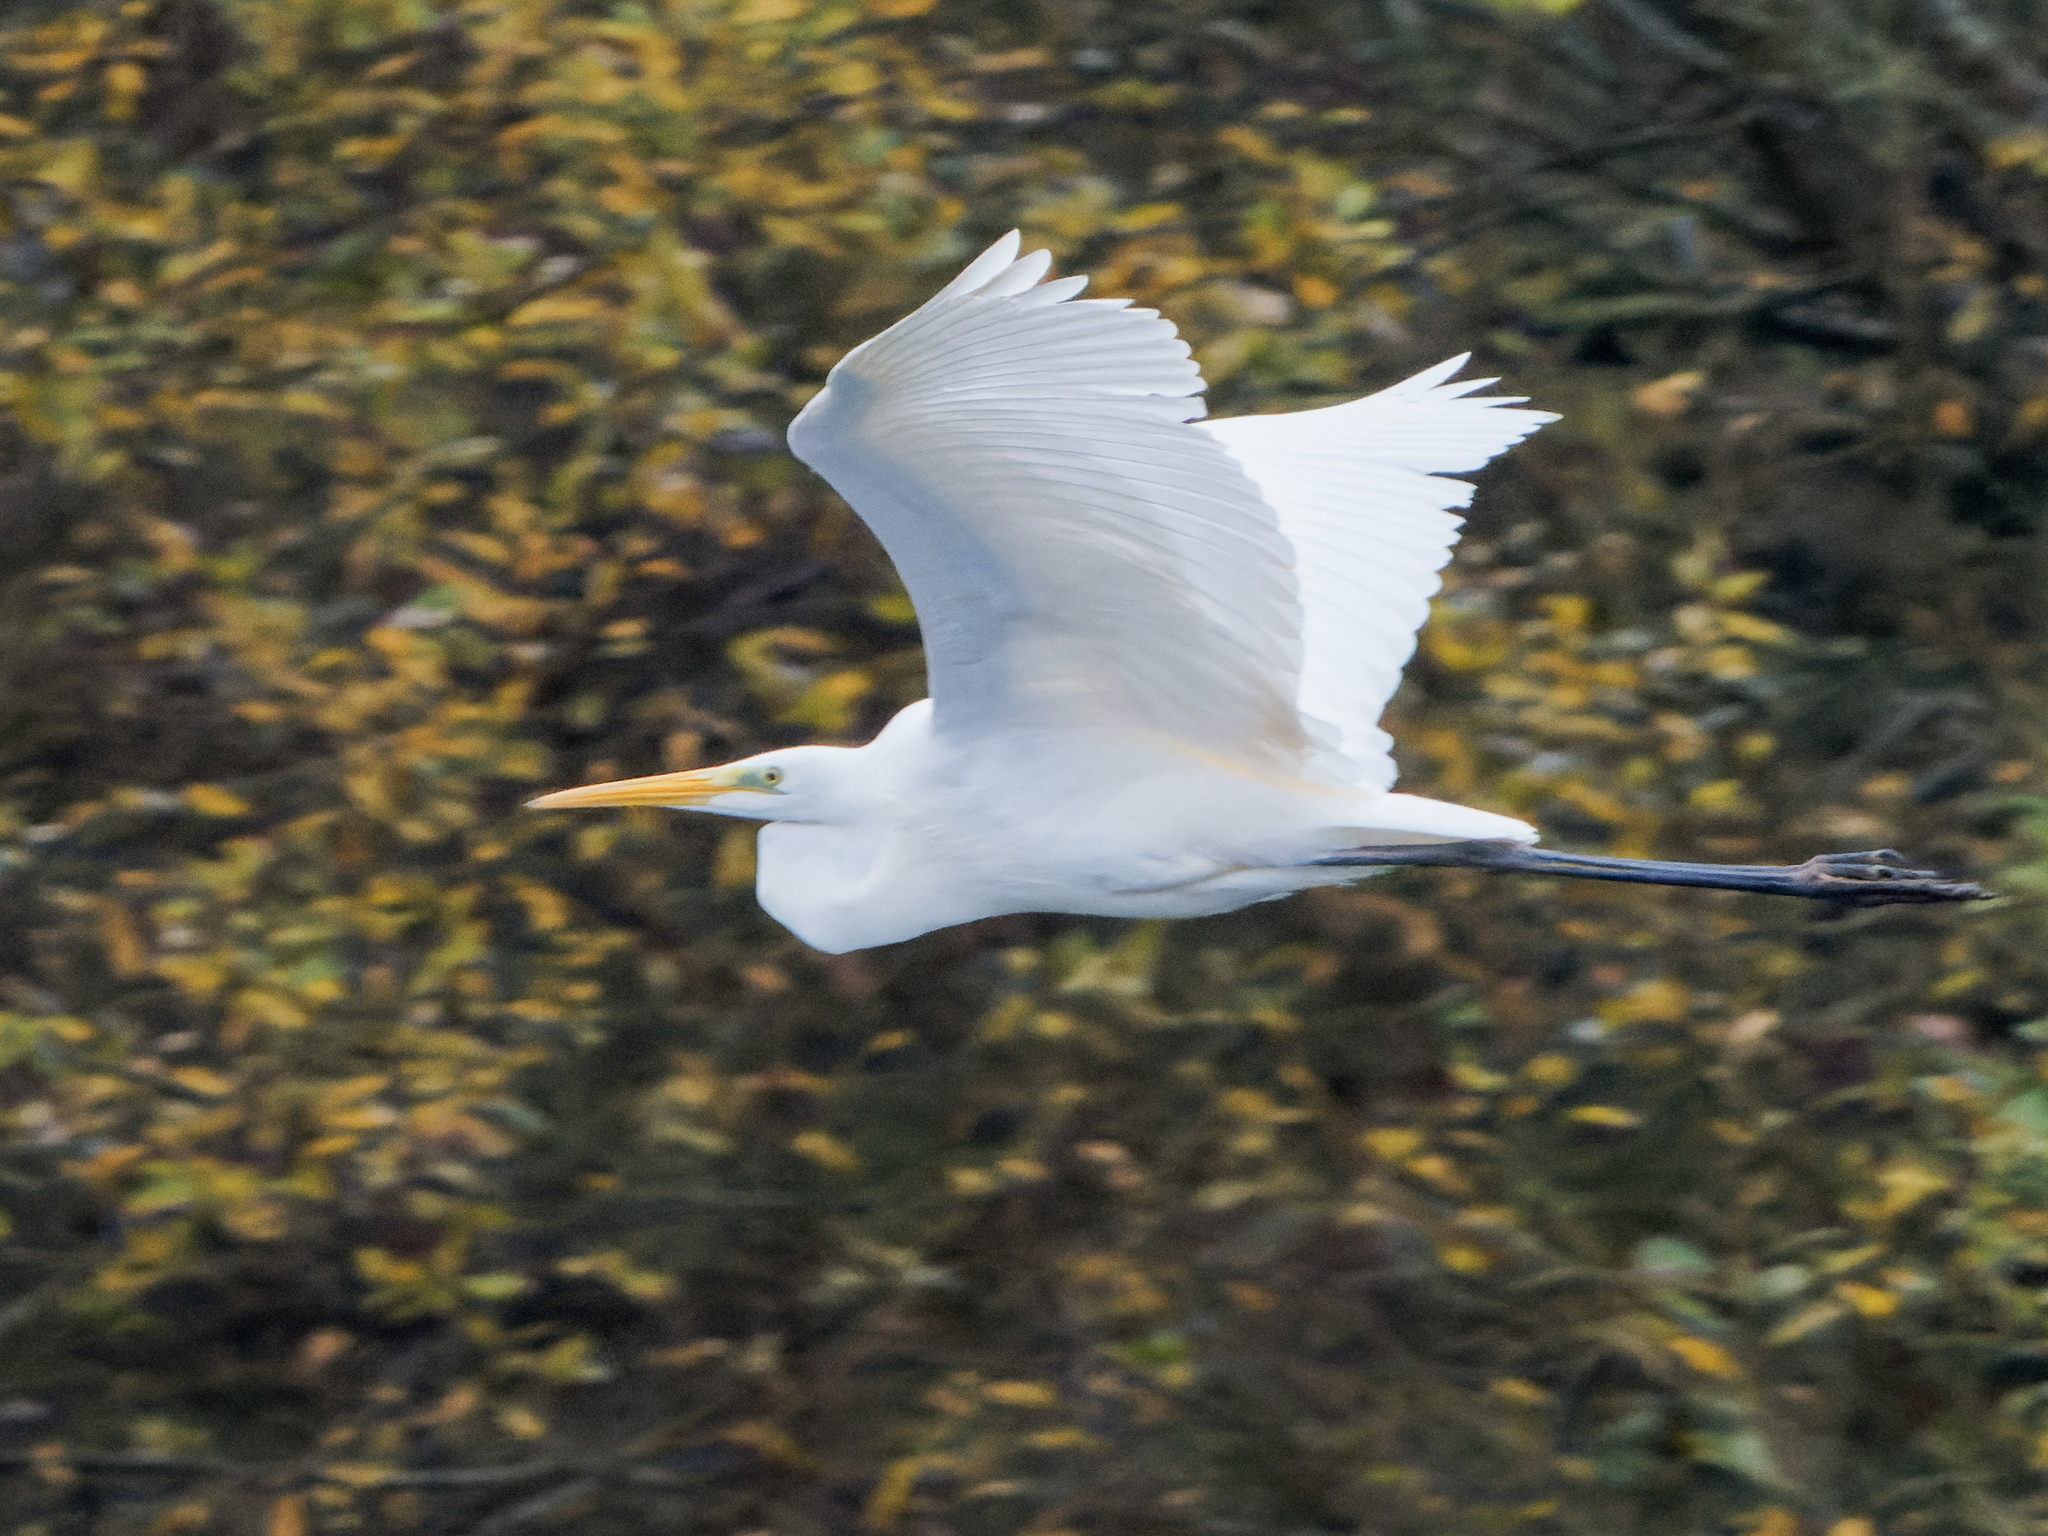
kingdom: Animalia
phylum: Chordata
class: Aves
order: Pelecaniformes
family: Ardeidae
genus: Ardea
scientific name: Ardea alba
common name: Great egret
